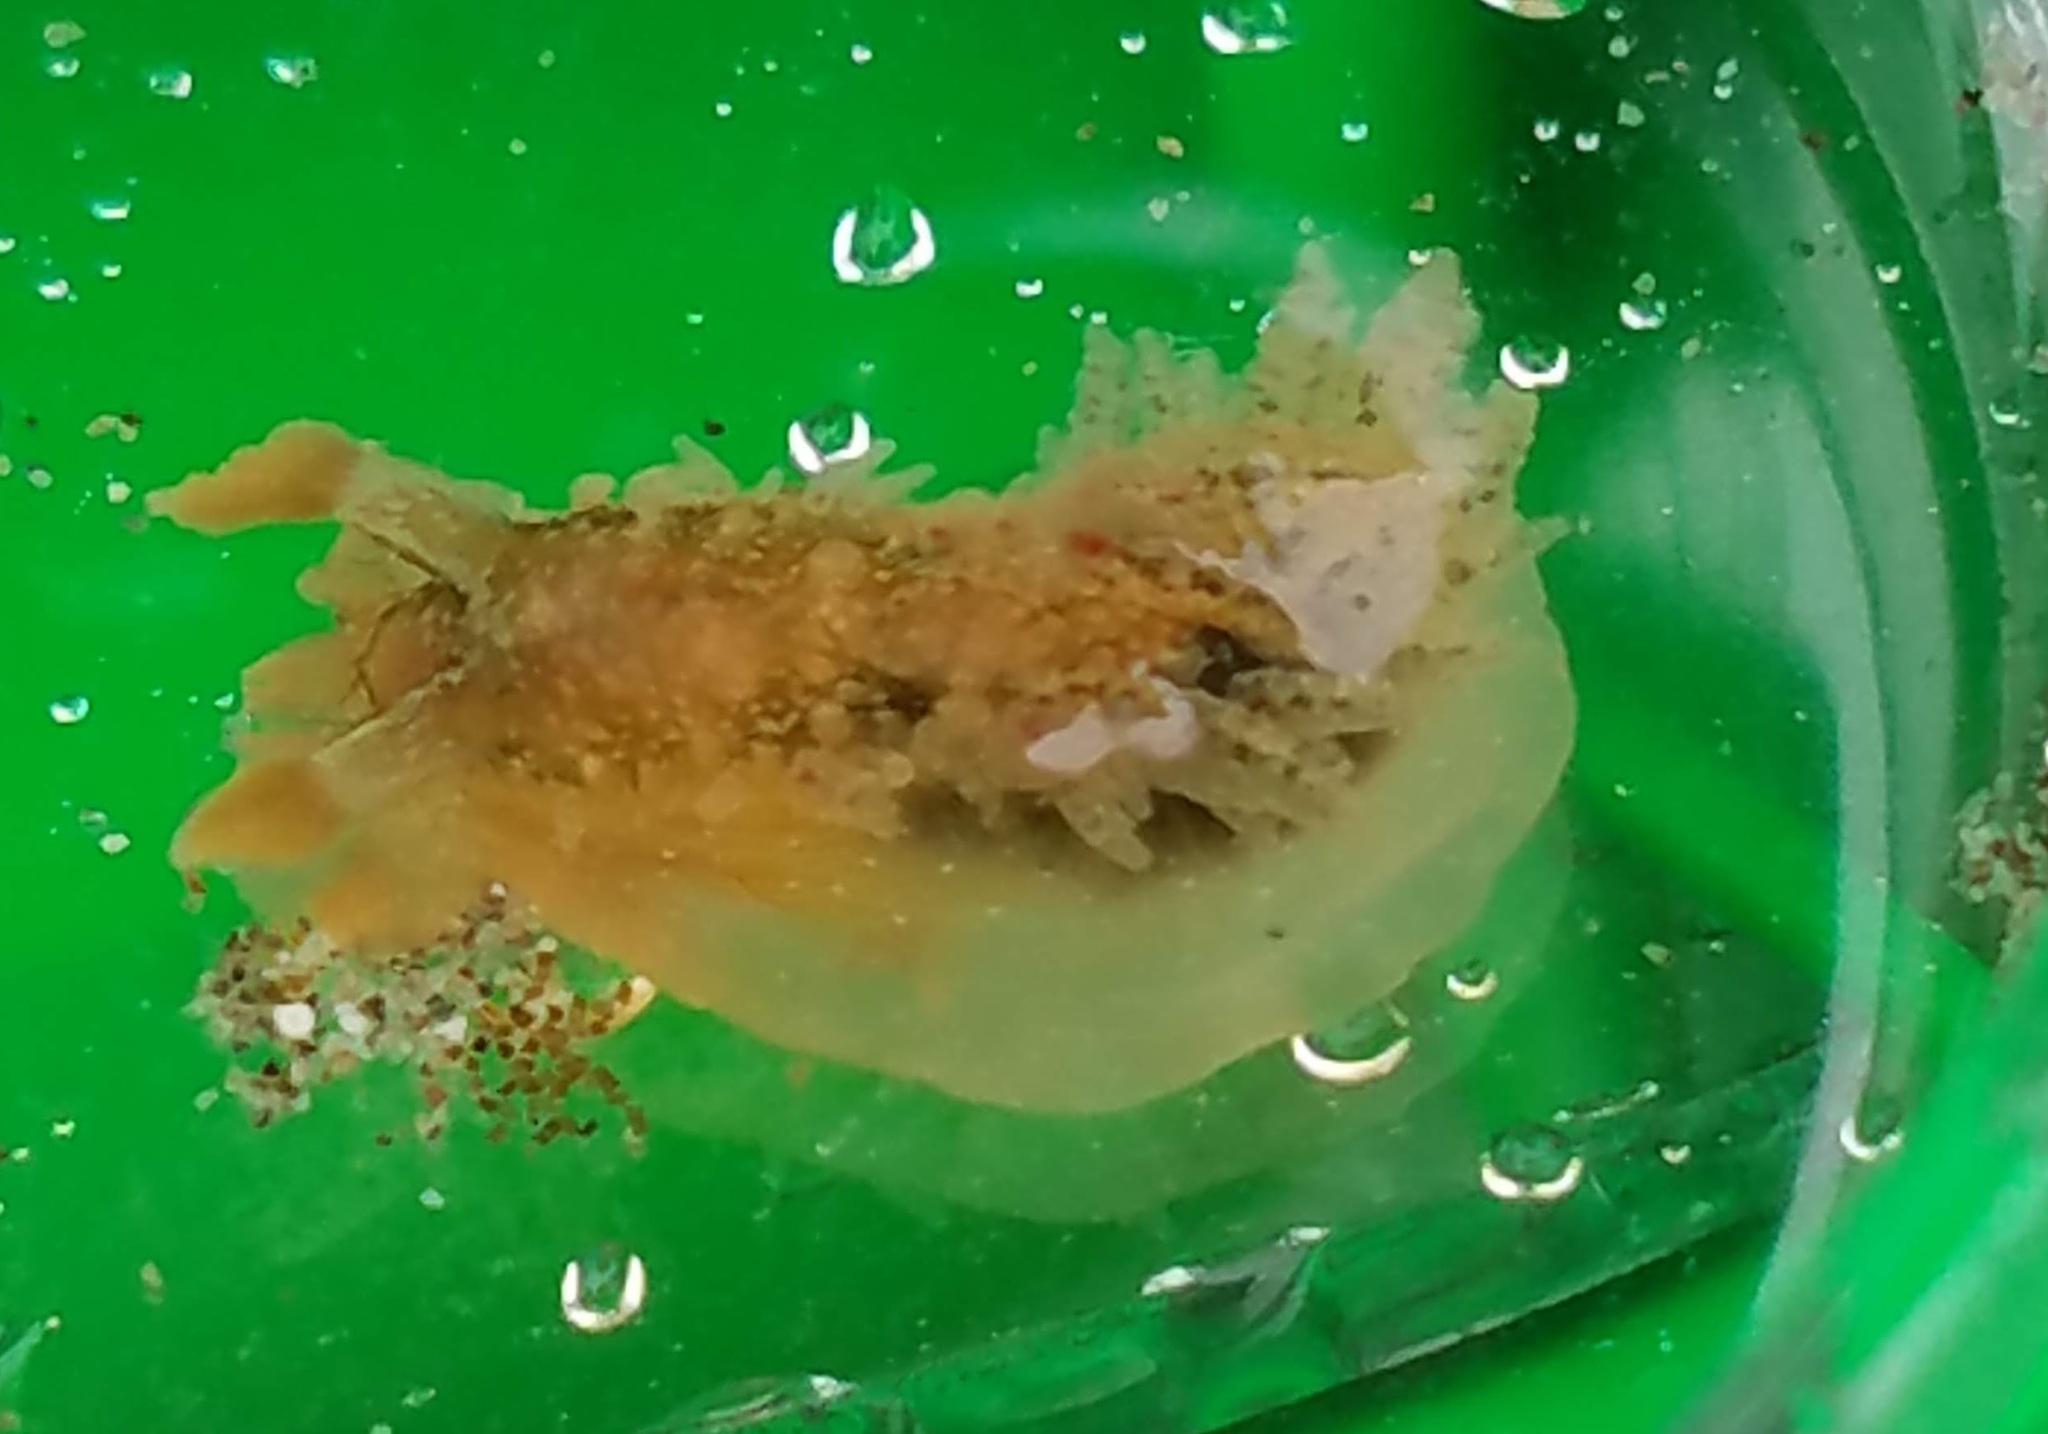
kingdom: Animalia
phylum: Mollusca
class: Gastropoda
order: Nudibranchia
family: Dironidae
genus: Dirona
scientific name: Dirona picta
